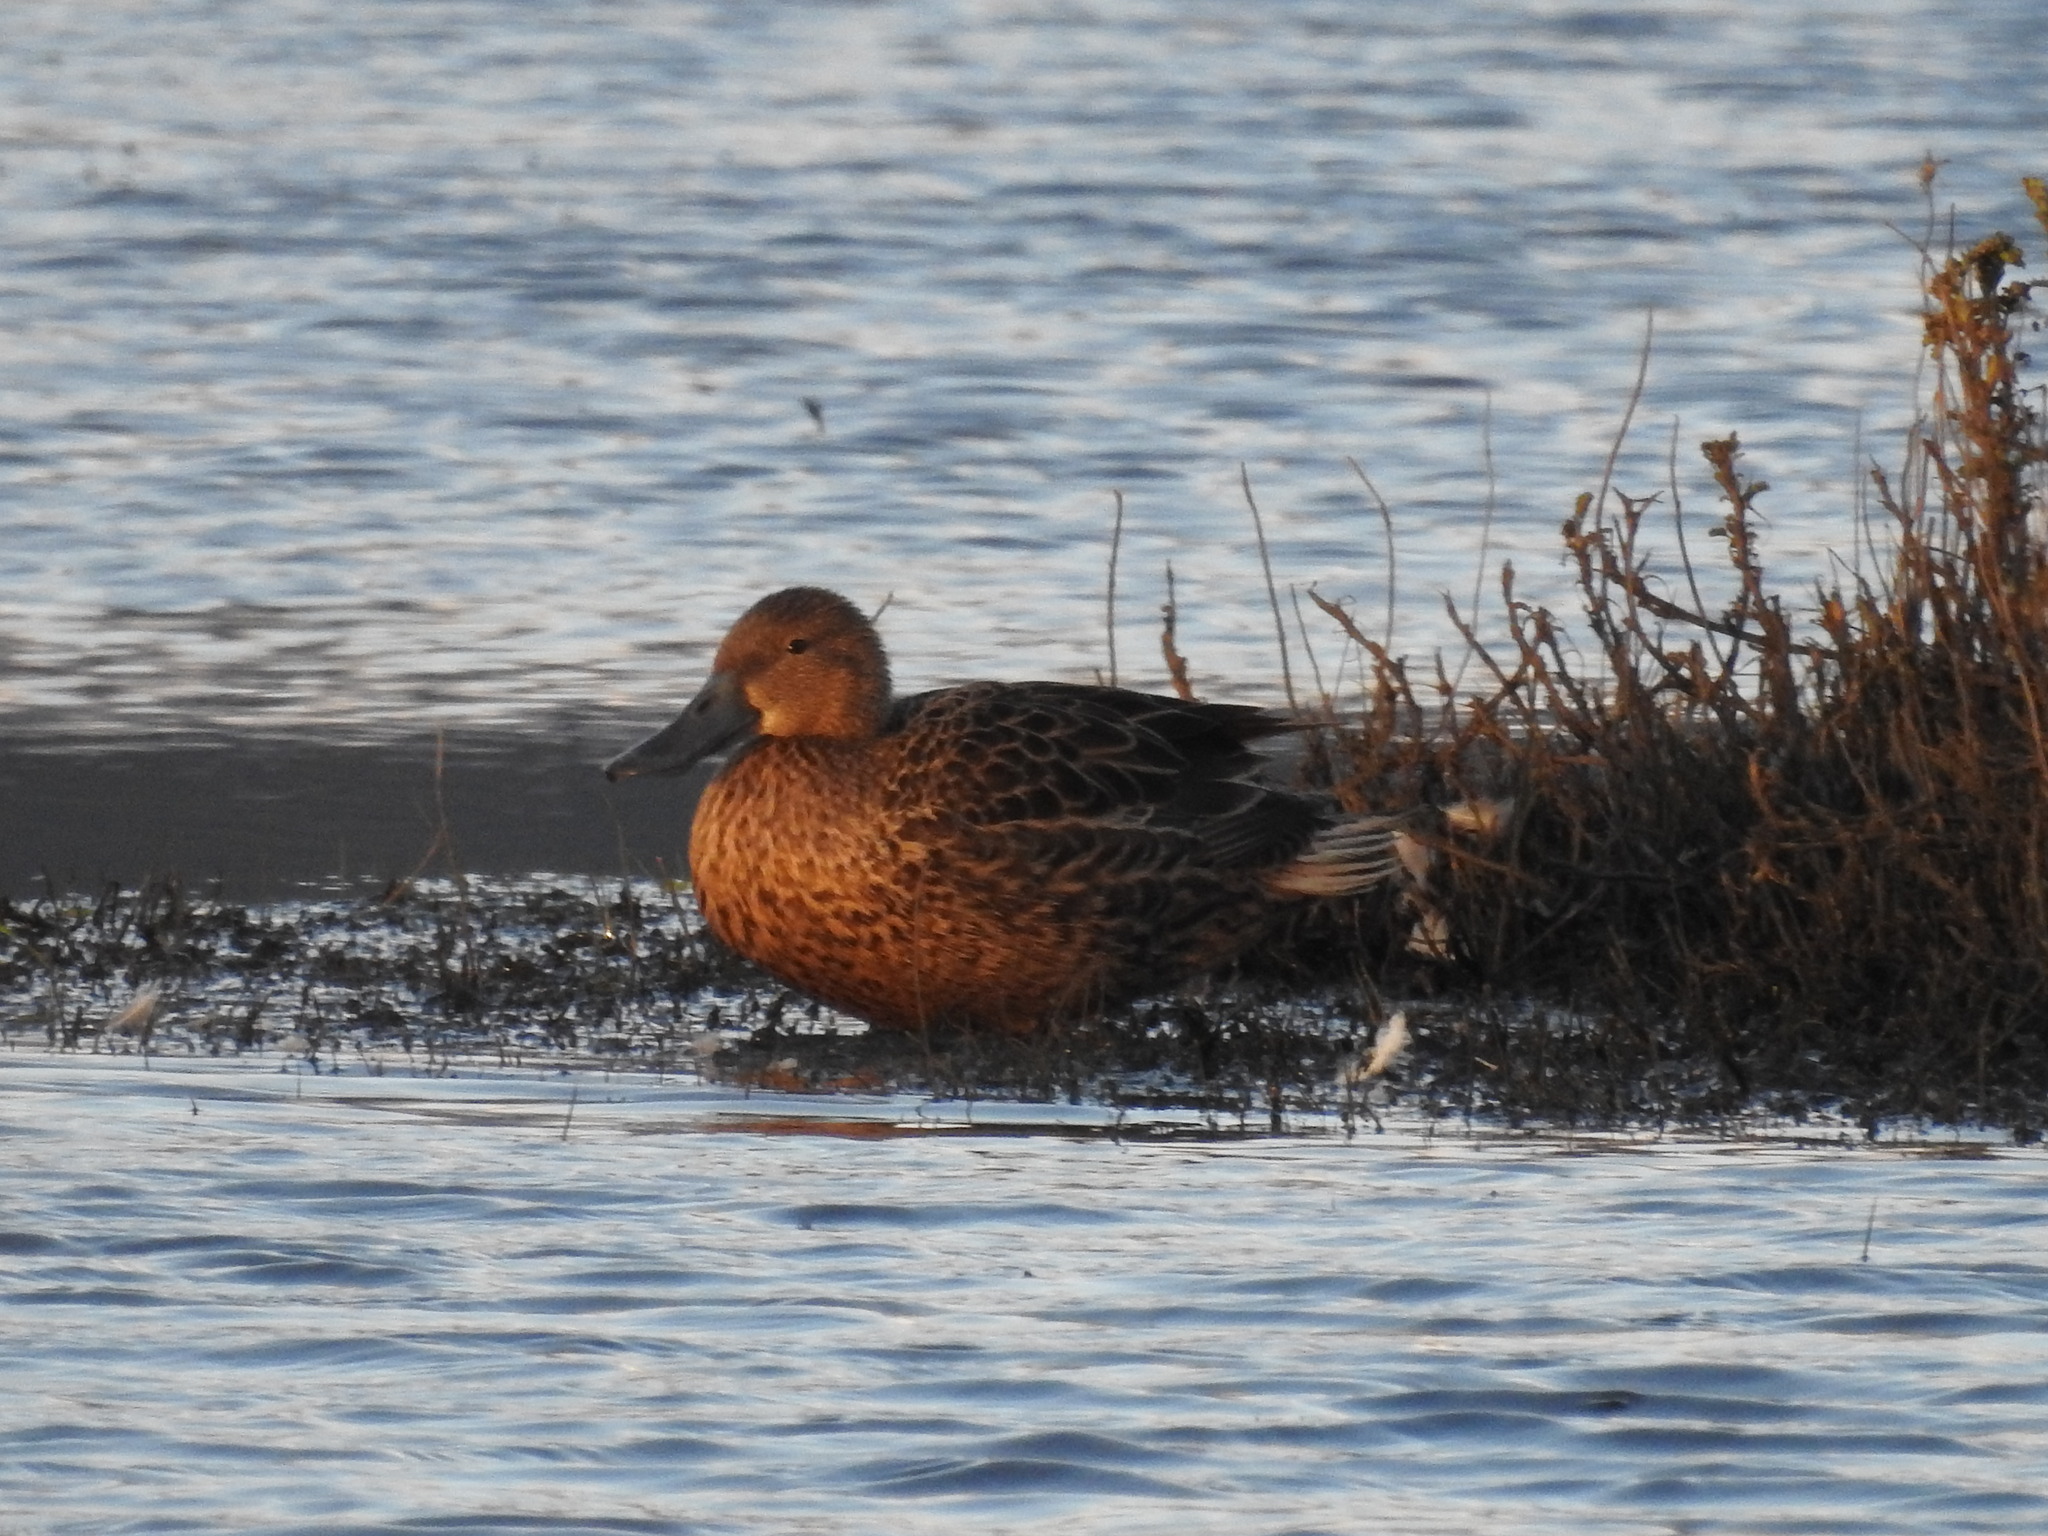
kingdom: Animalia
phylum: Chordata
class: Aves
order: Anseriformes
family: Anatidae
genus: Spatula
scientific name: Spatula platalea
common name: Red shoveler
